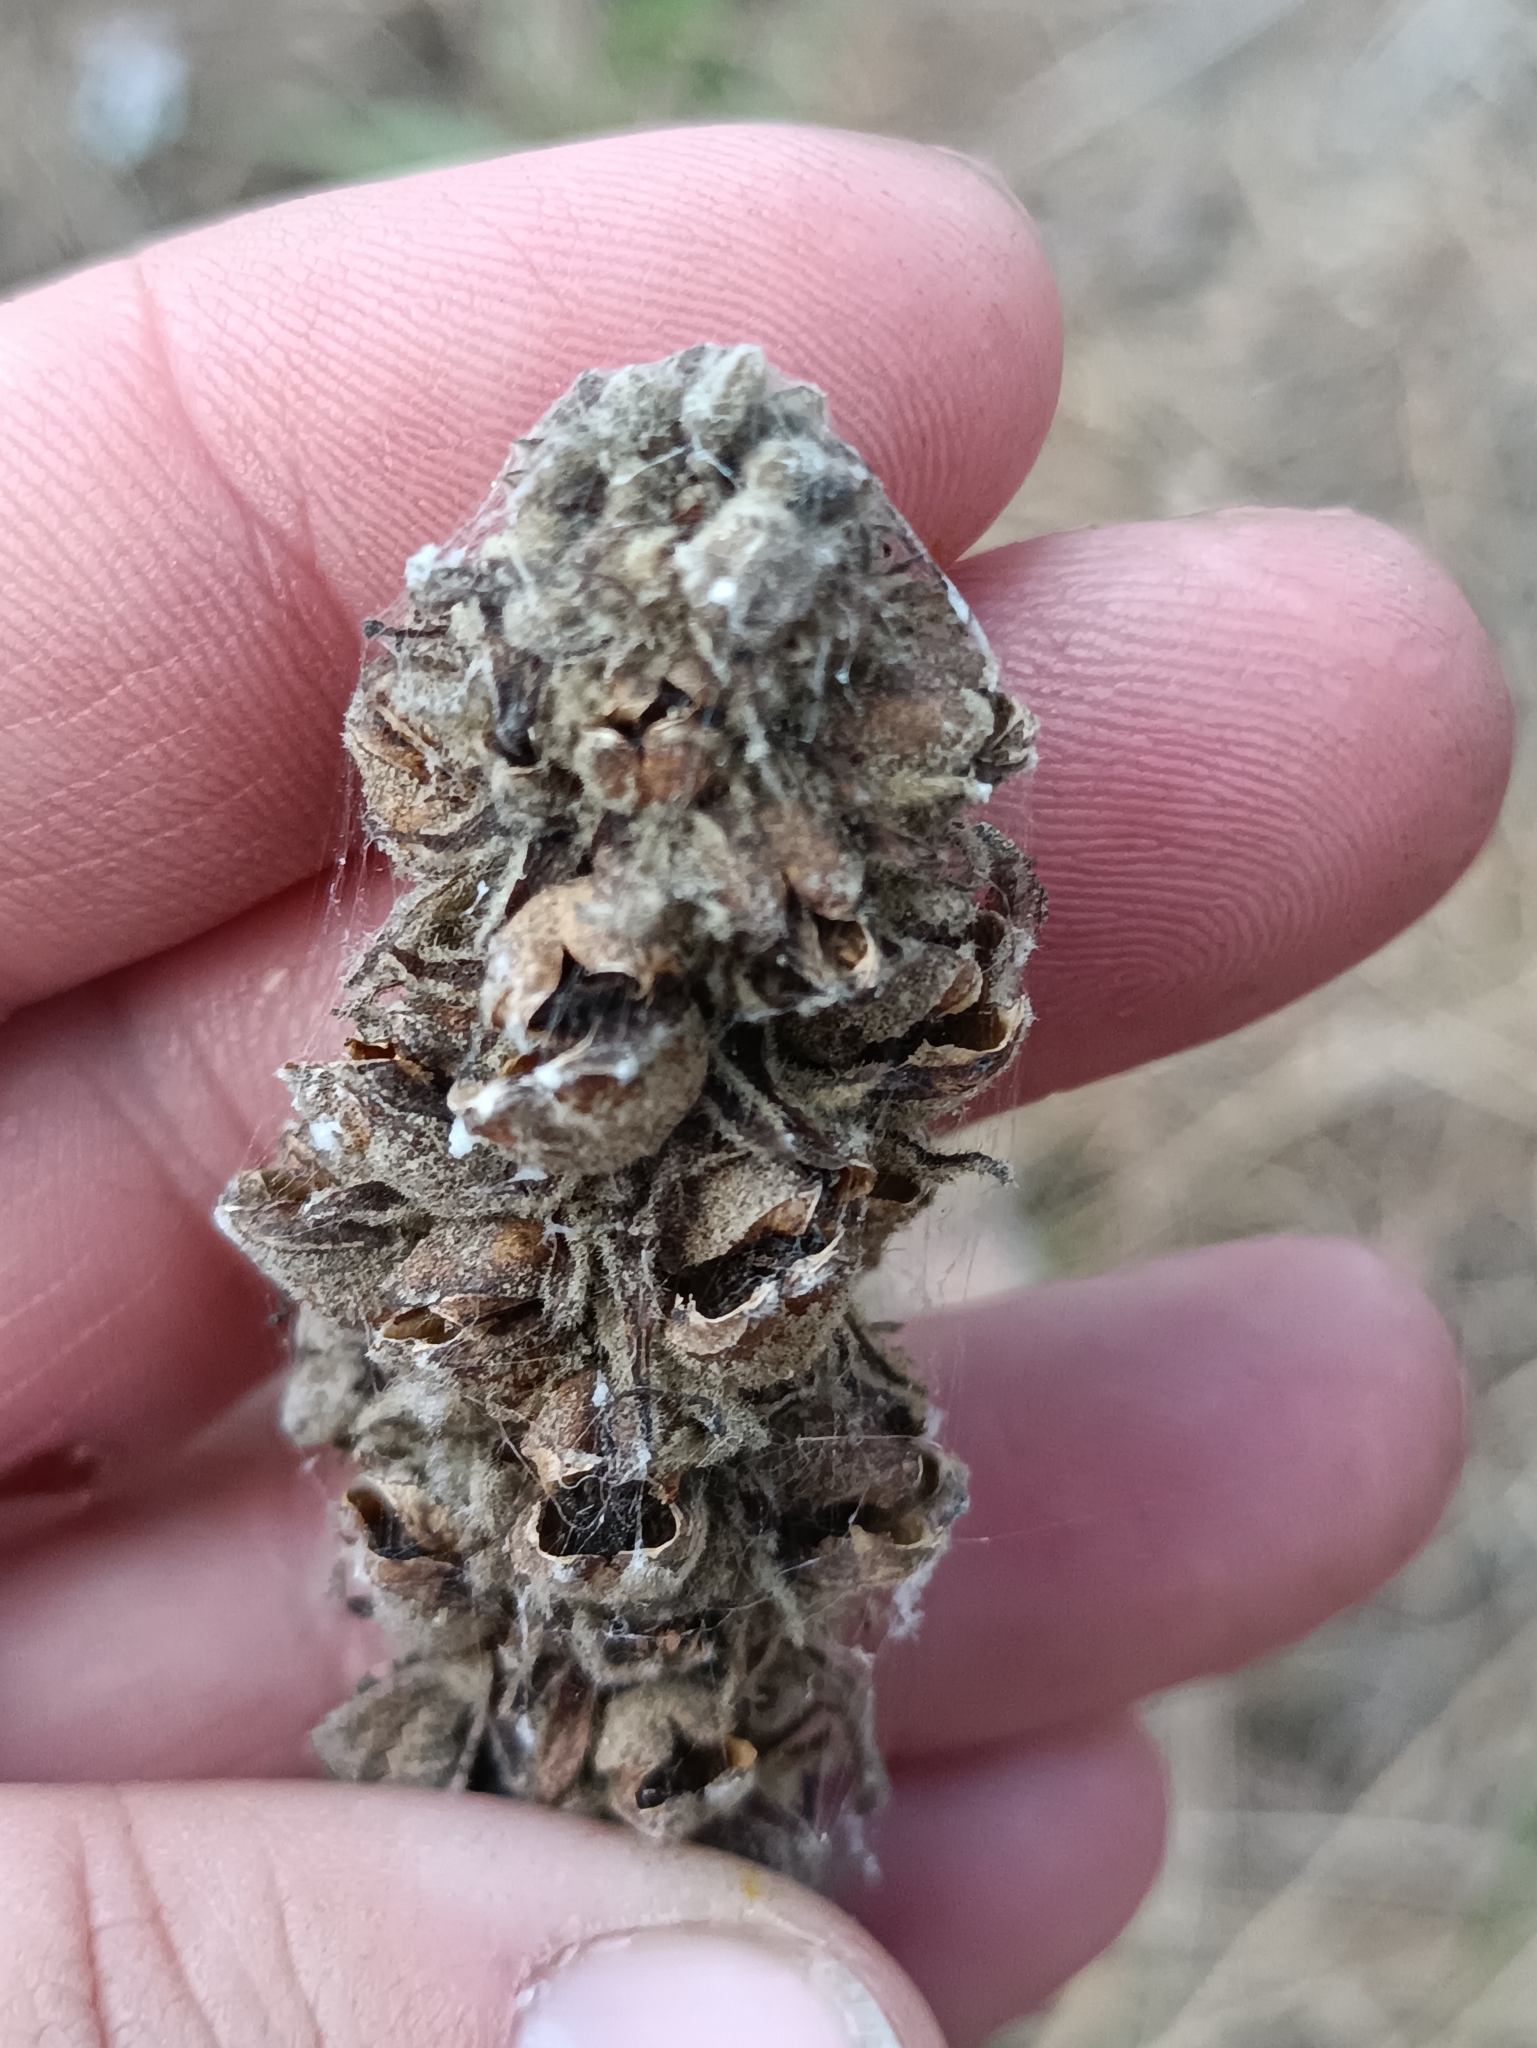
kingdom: Plantae
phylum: Tracheophyta
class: Magnoliopsida
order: Lamiales
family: Scrophulariaceae
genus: Verbascum
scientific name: Verbascum thapsus
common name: Common mullein
